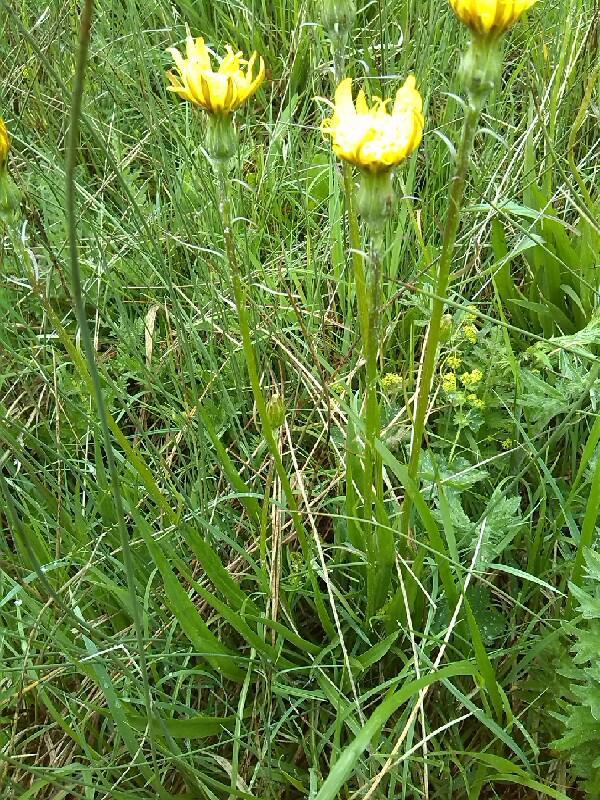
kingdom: Plantae
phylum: Tracheophyta
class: Magnoliopsida
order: Asterales
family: Asteraceae
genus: Scorzonera
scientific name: Scorzonera humilis
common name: Viper's-grass
